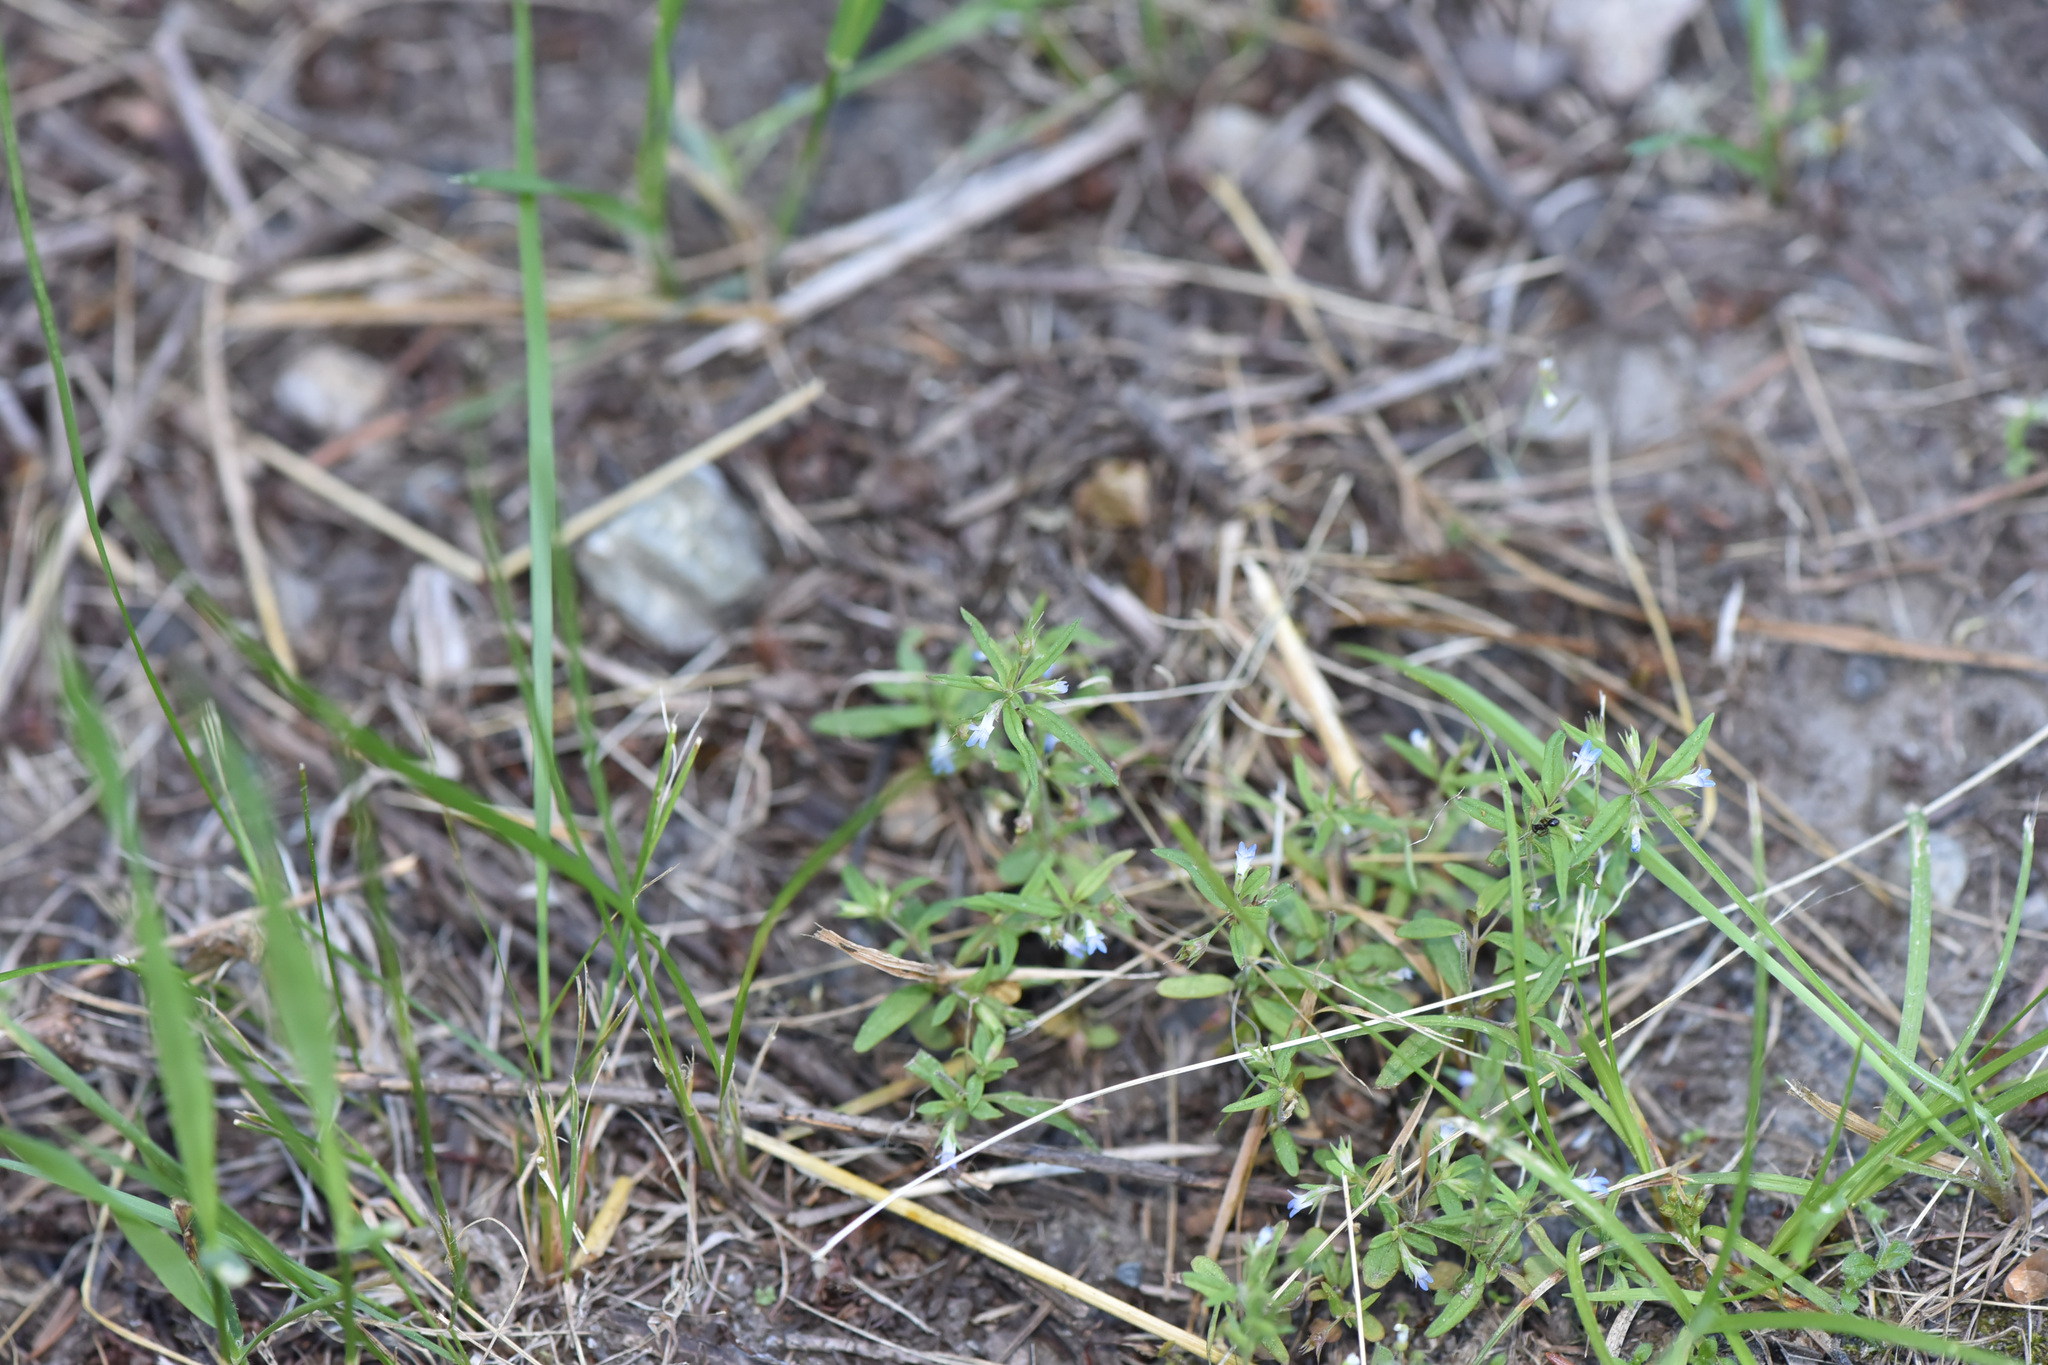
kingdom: Plantae
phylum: Tracheophyta
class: Magnoliopsida
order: Lamiales
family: Plantaginaceae
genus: Collinsia
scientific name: Collinsia parviflora
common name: Blue-lips
